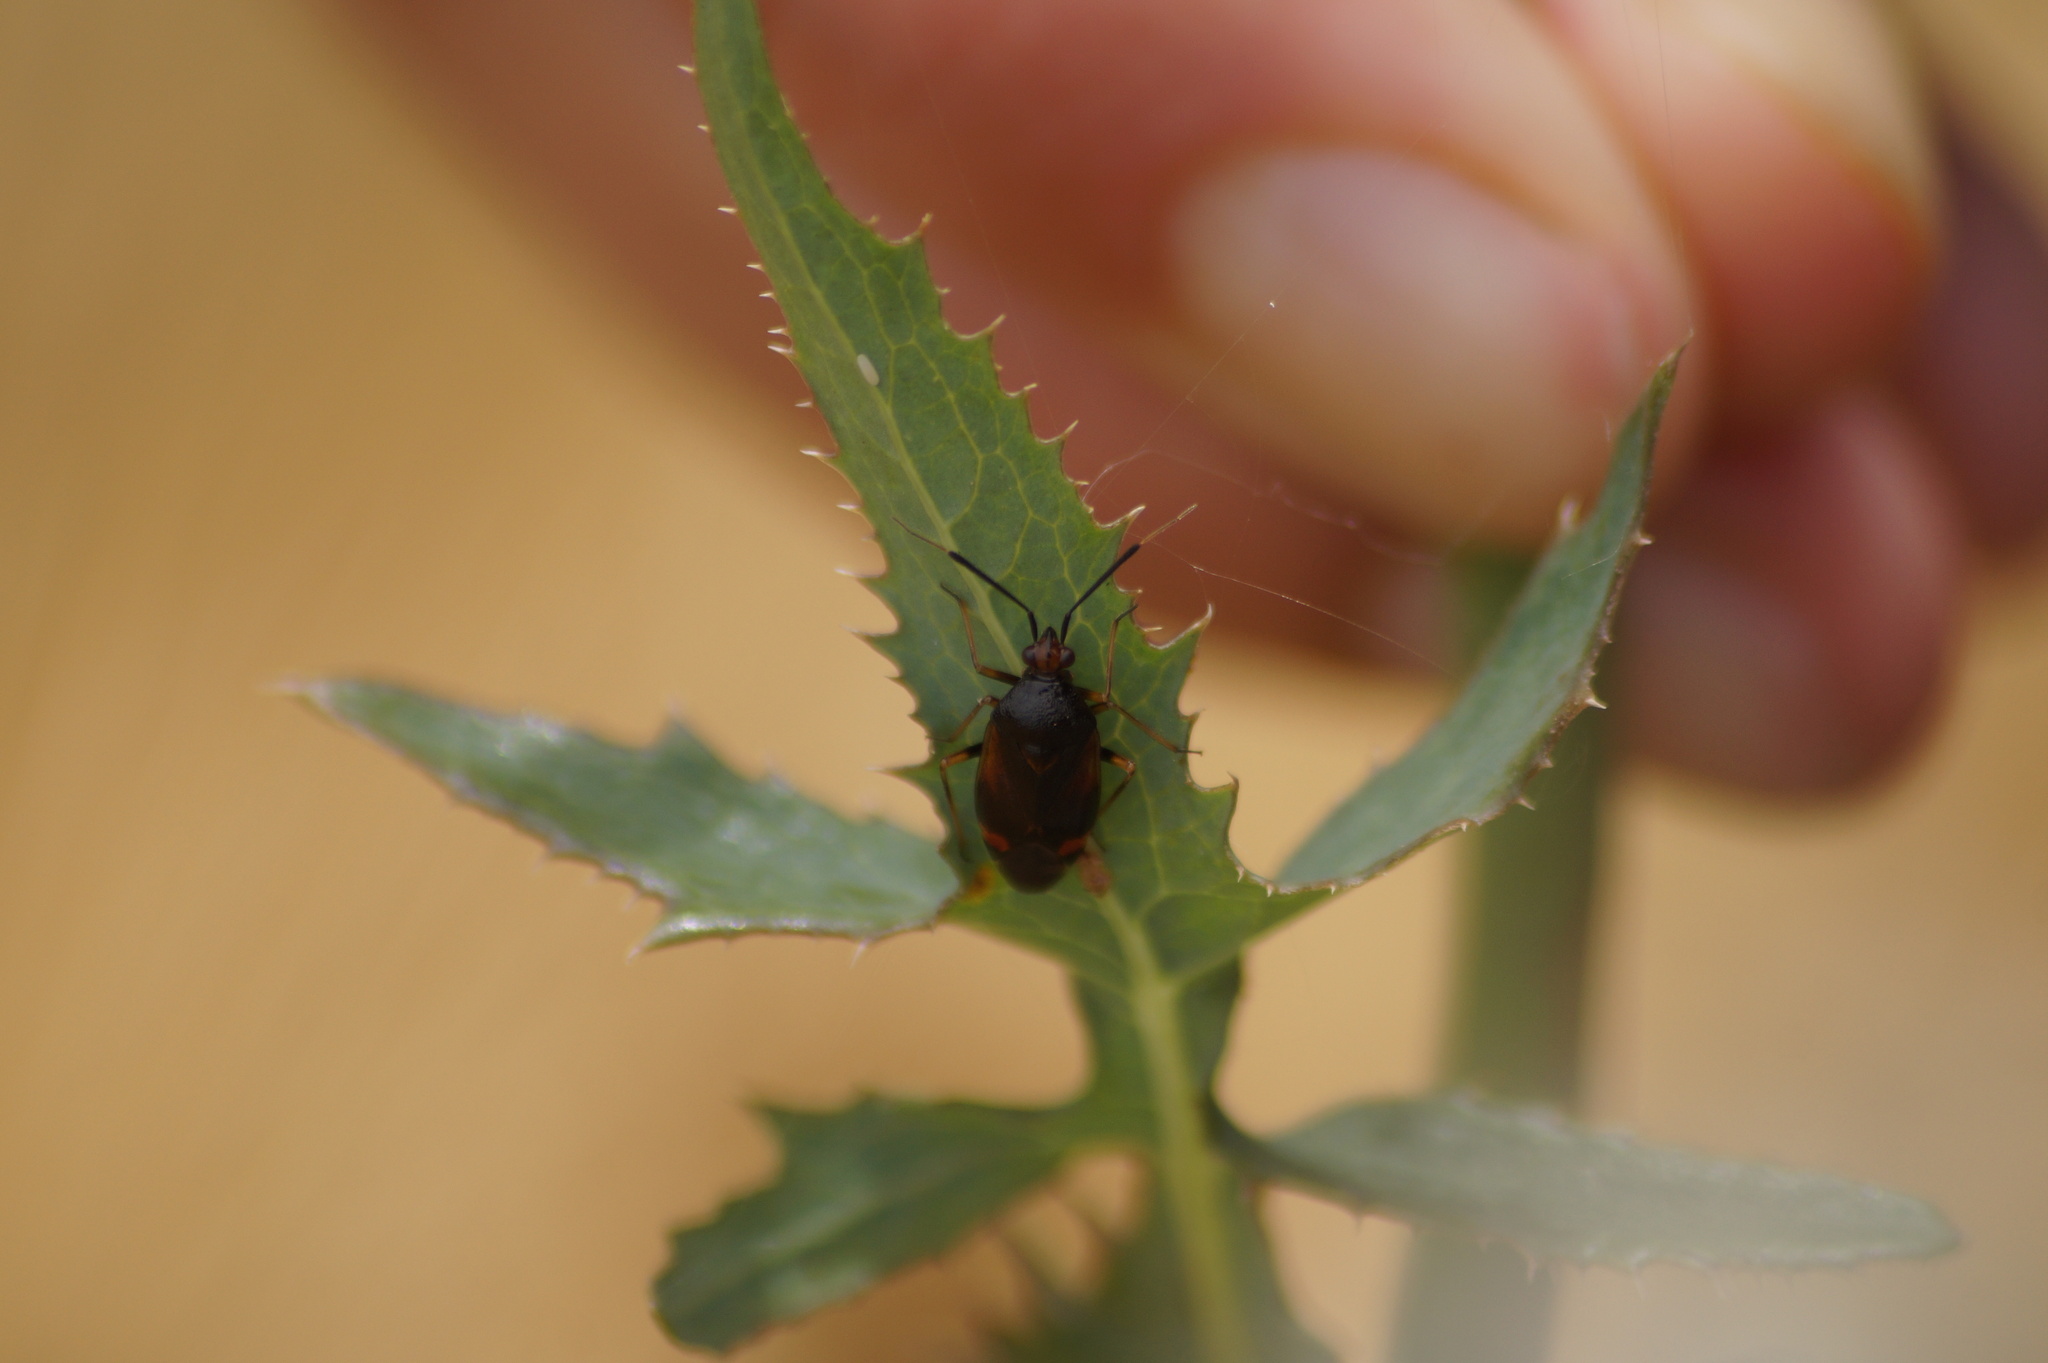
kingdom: Animalia
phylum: Arthropoda
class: Insecta
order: Hemiptera
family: Miridae
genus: Deraeocoris
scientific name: Deraeocoris ruber
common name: Plant bug
